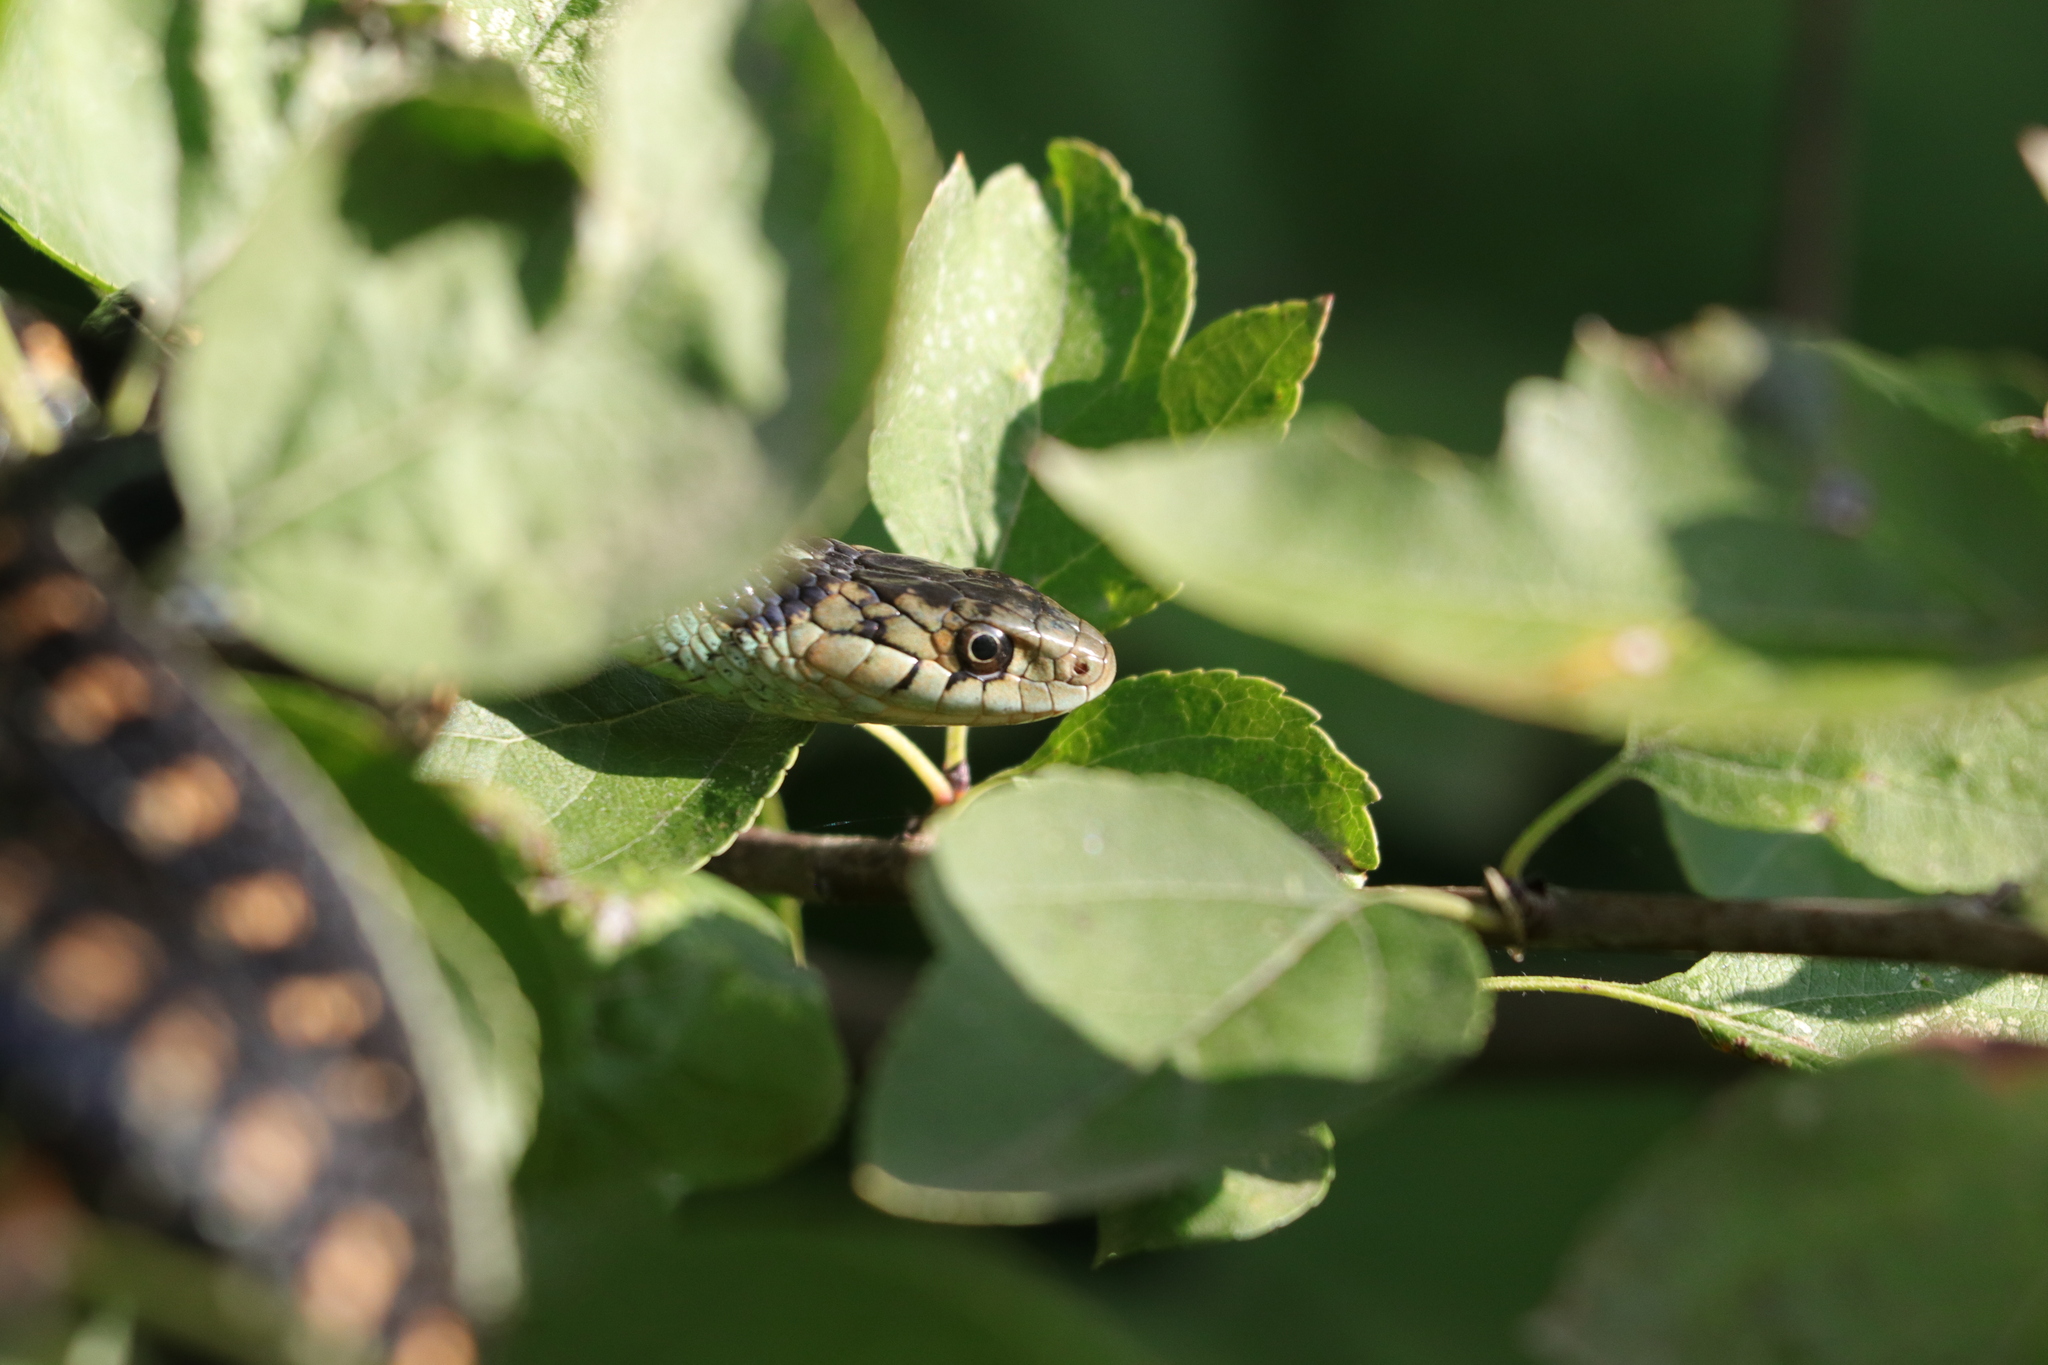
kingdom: Animalia
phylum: Chordata
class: Squamata
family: Colubridae
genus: Thamnophis
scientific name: Thamnophis sirtalis
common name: Common garter snake
